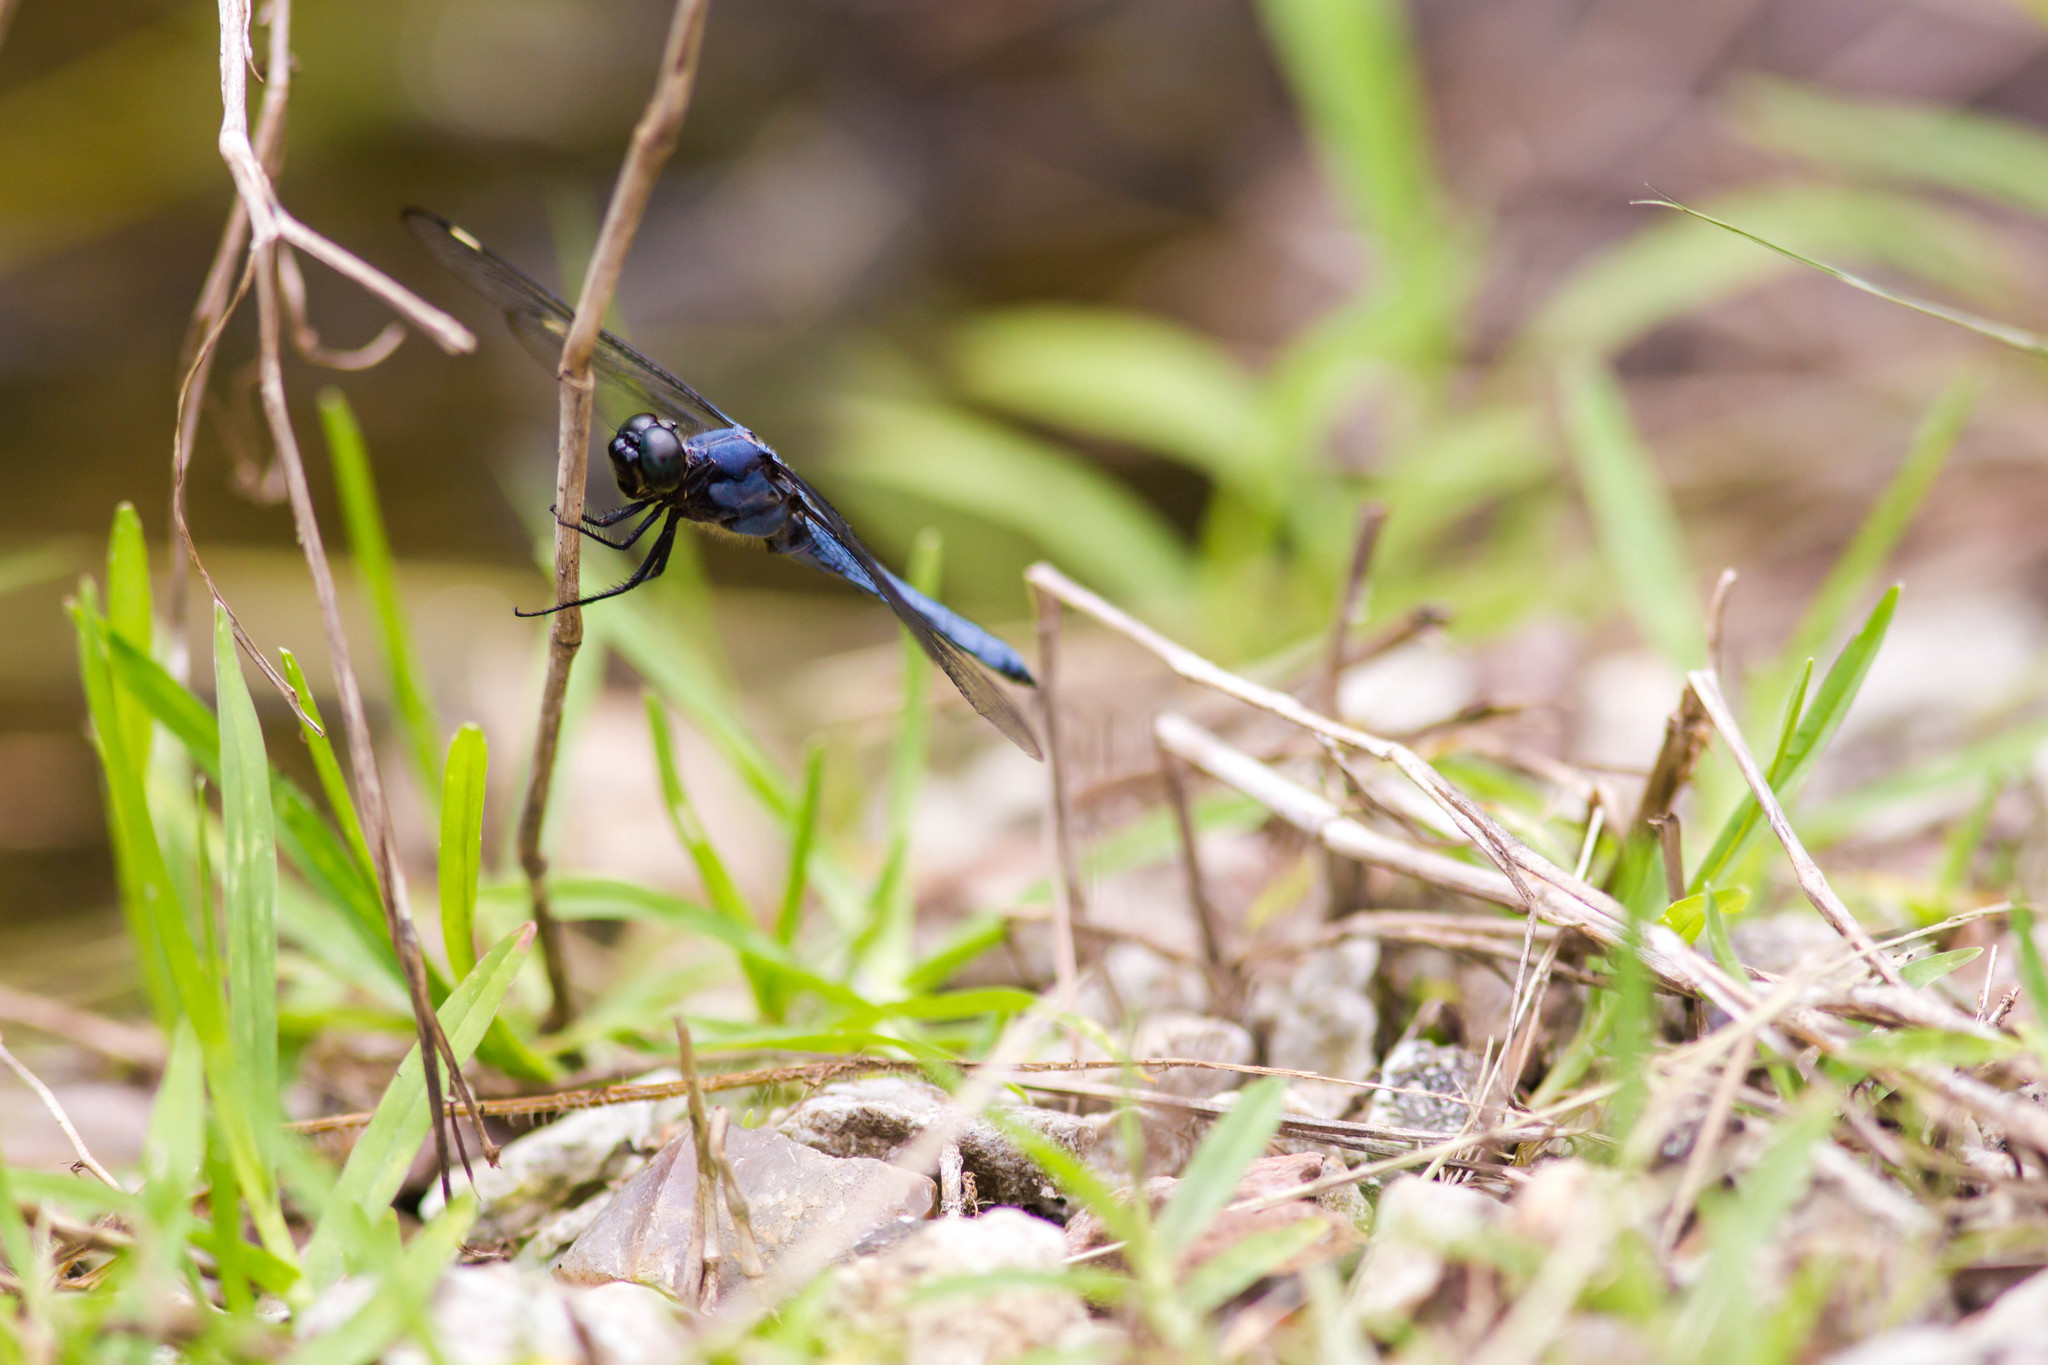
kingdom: Animalia
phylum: Arthropoda
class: Insecta
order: Odonata
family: Libellulidae
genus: Libellula
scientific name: Libellula cyanea
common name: Spangled skimmer
